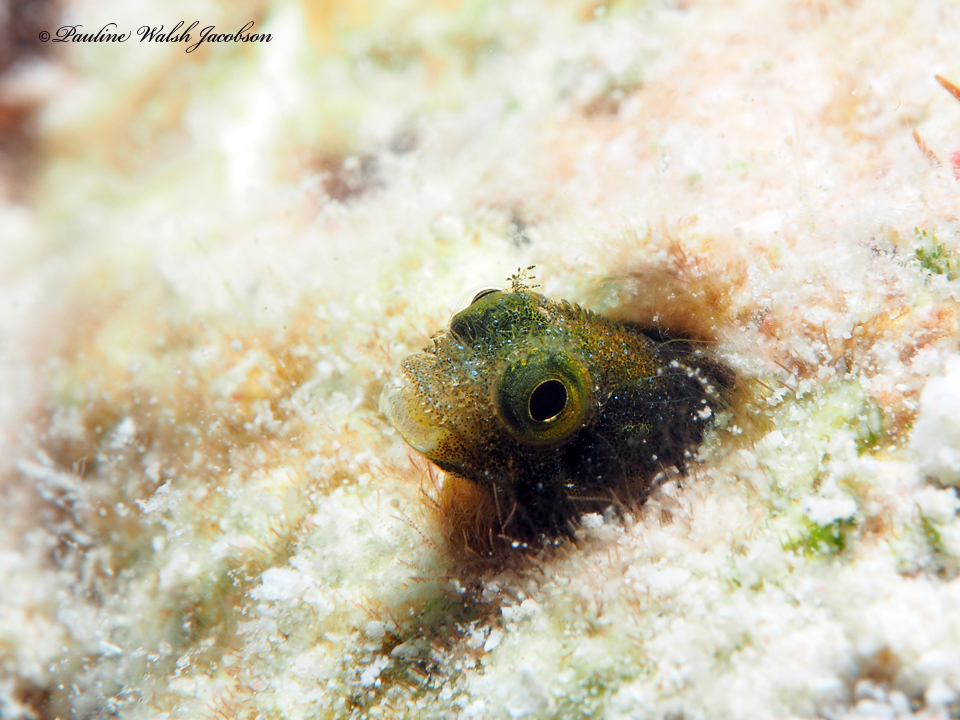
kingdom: Animalia
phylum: Chordata
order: Perciformes
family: Chaenopsidae
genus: Acanthemblemaria
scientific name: Acanthemblemaria spinosa
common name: Spinyhead blenny
